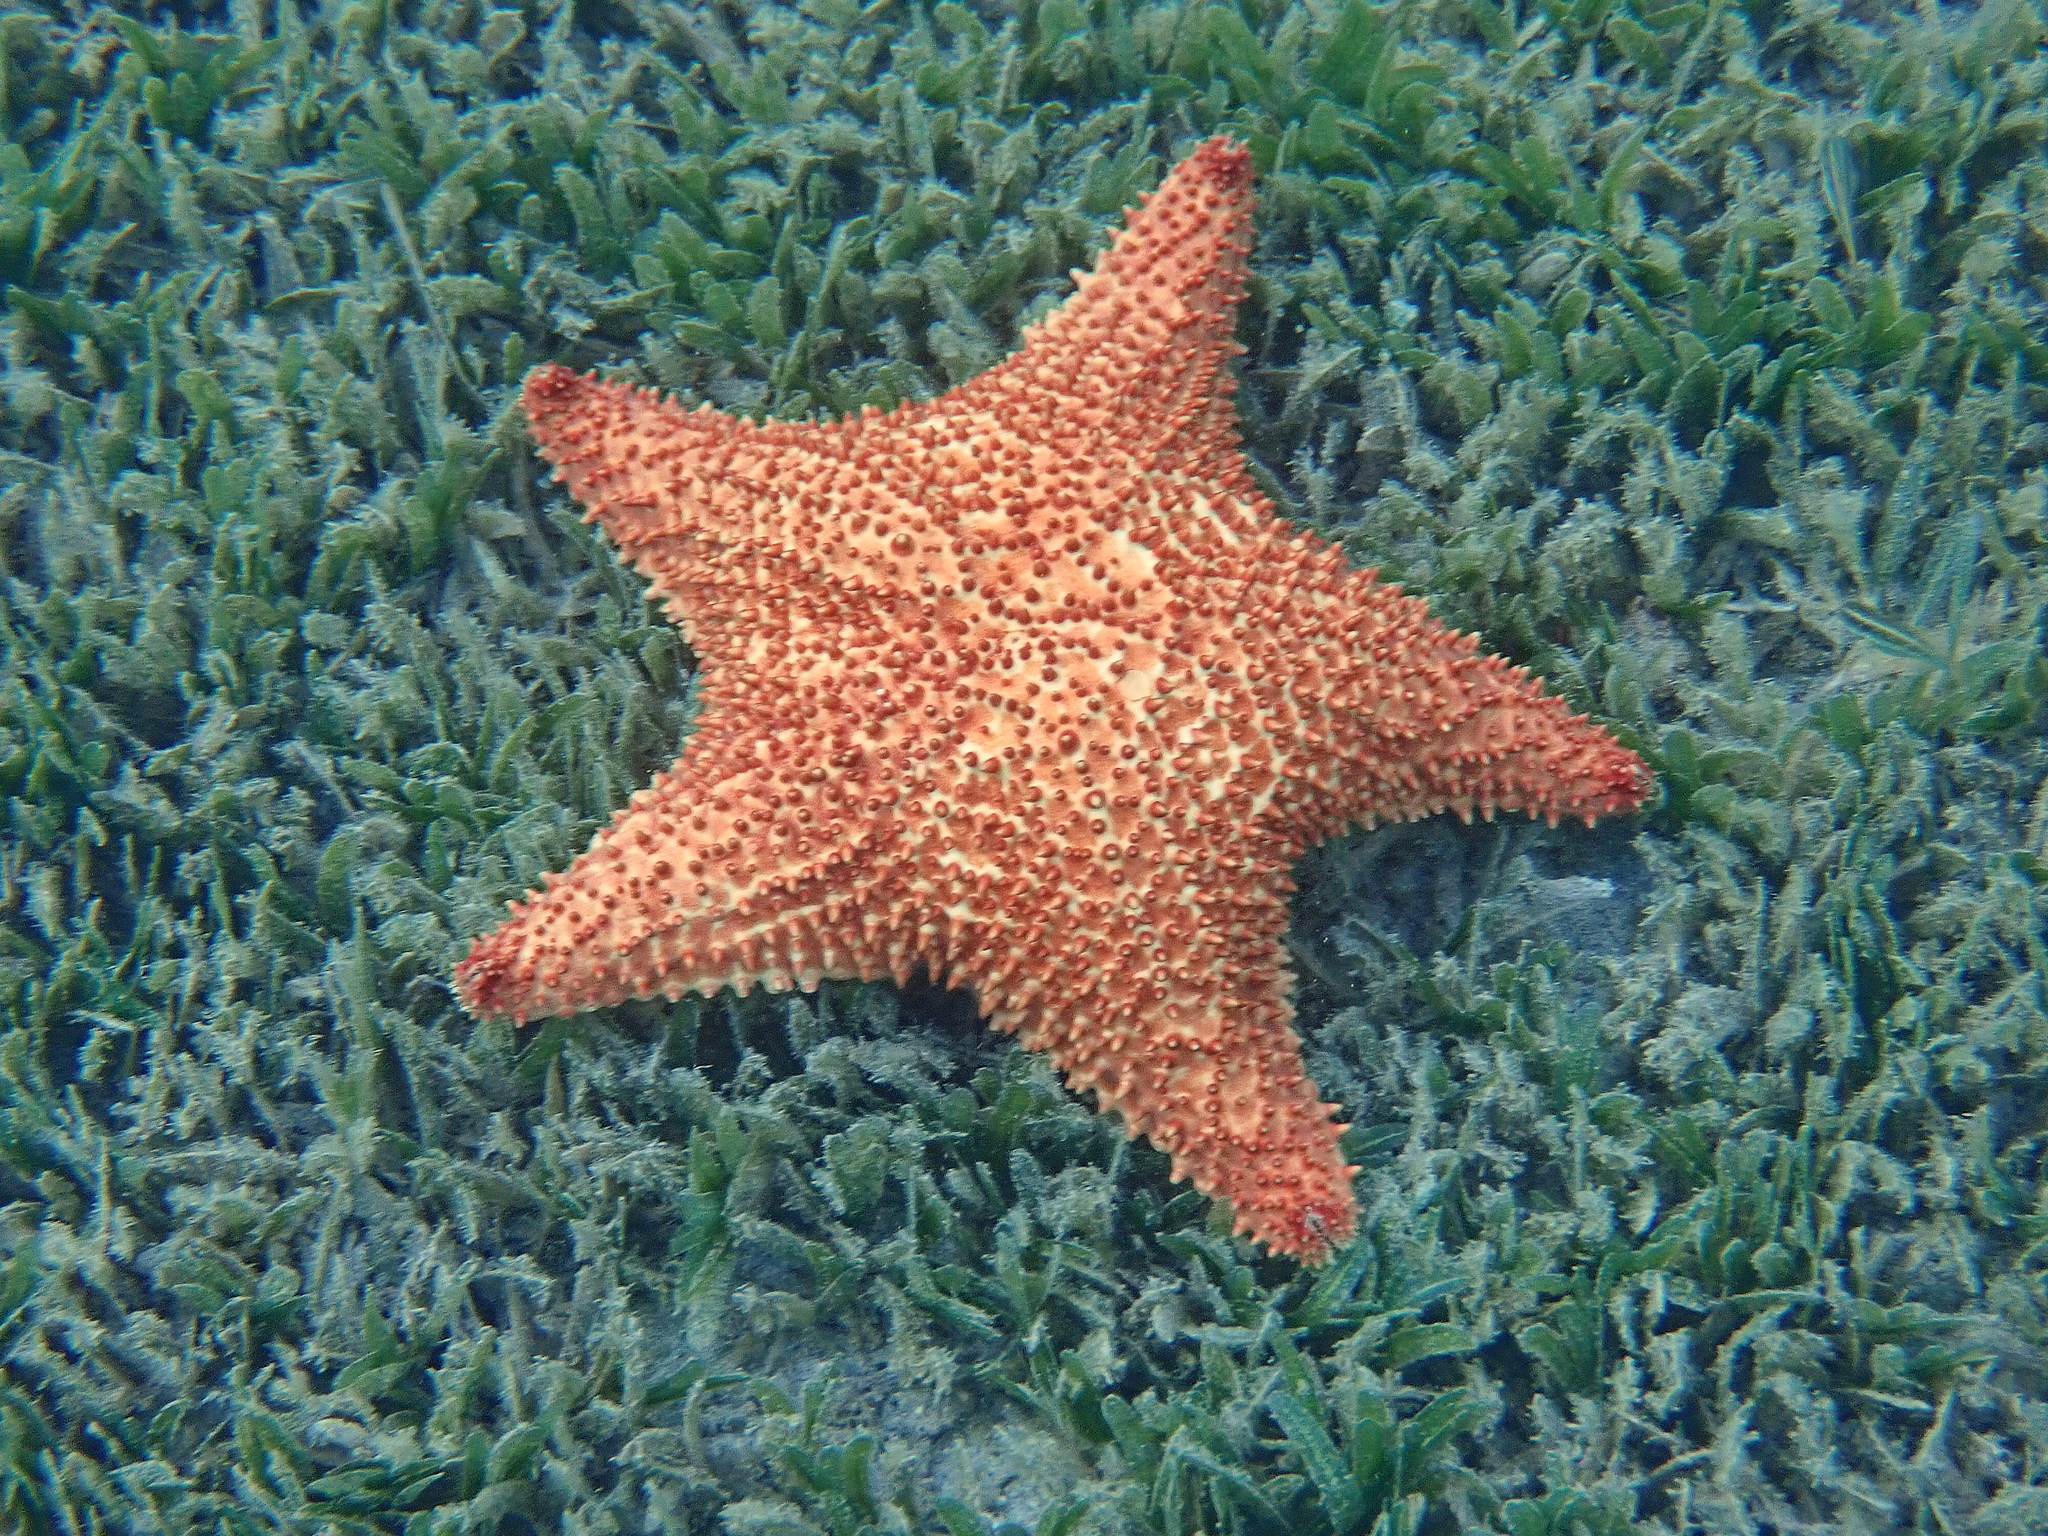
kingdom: Animalia
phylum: Echinodermata
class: Asteroidea
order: Valvatida
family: Oreasteridae
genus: Oreaster
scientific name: Oreaster reticulatus
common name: Cushion sea star
